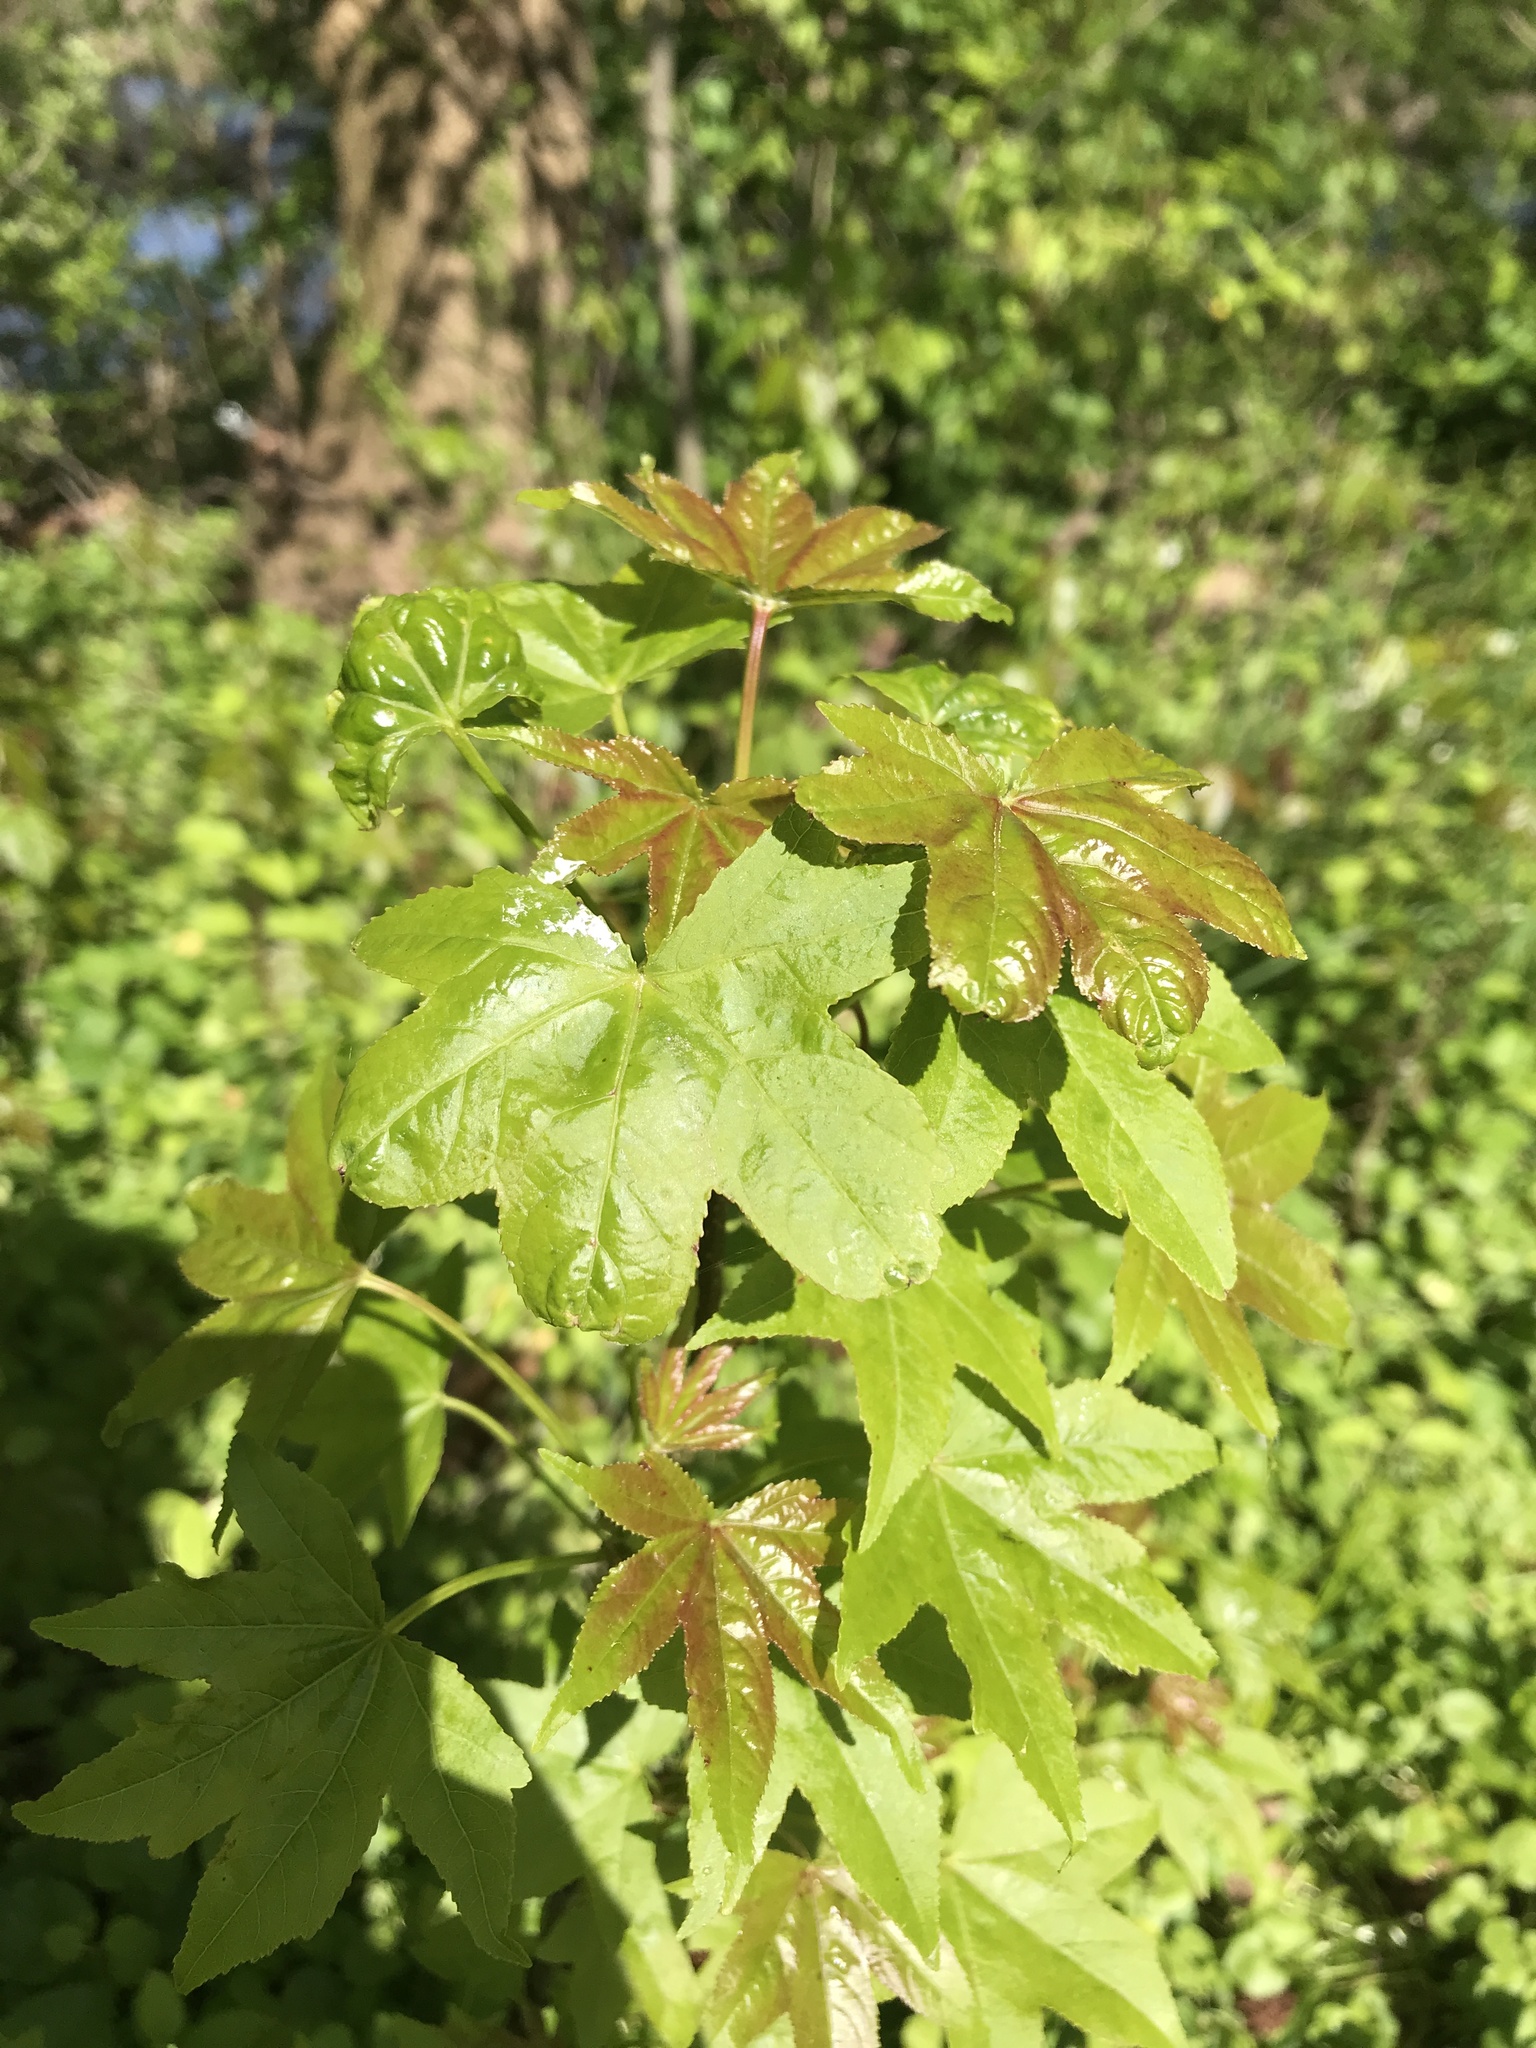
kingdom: Plantae
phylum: Tracheophyta
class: Magnoliopsida
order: Saxifragales
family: Altingiaceae
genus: Liquidambar
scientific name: Liquidambar styraciflua
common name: Sweet gum
